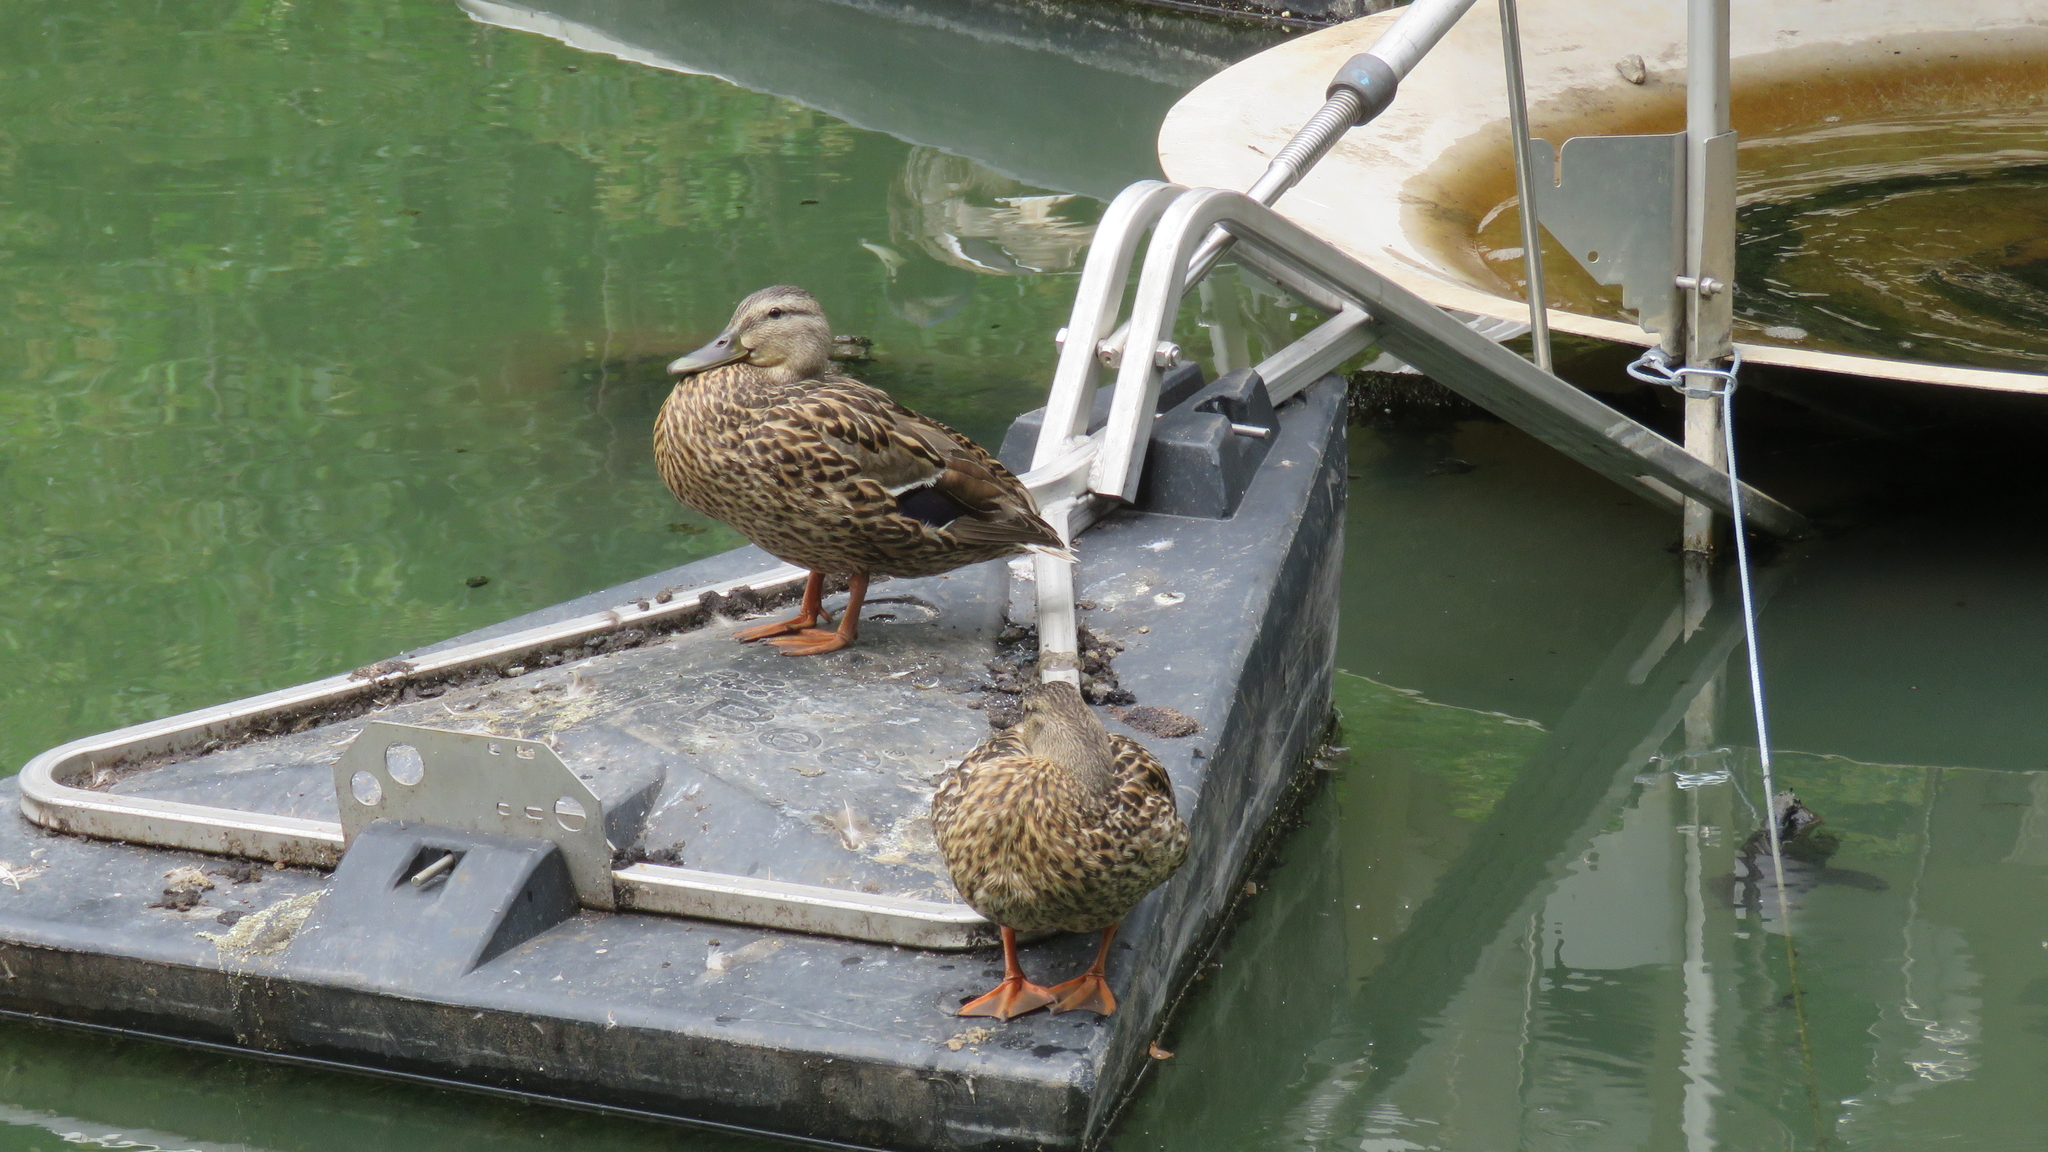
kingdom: Animalia
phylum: Chordata
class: Aves
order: Anseriformes
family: Anatidae
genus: Anas
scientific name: Anas platyrhynchos
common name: Mallard
